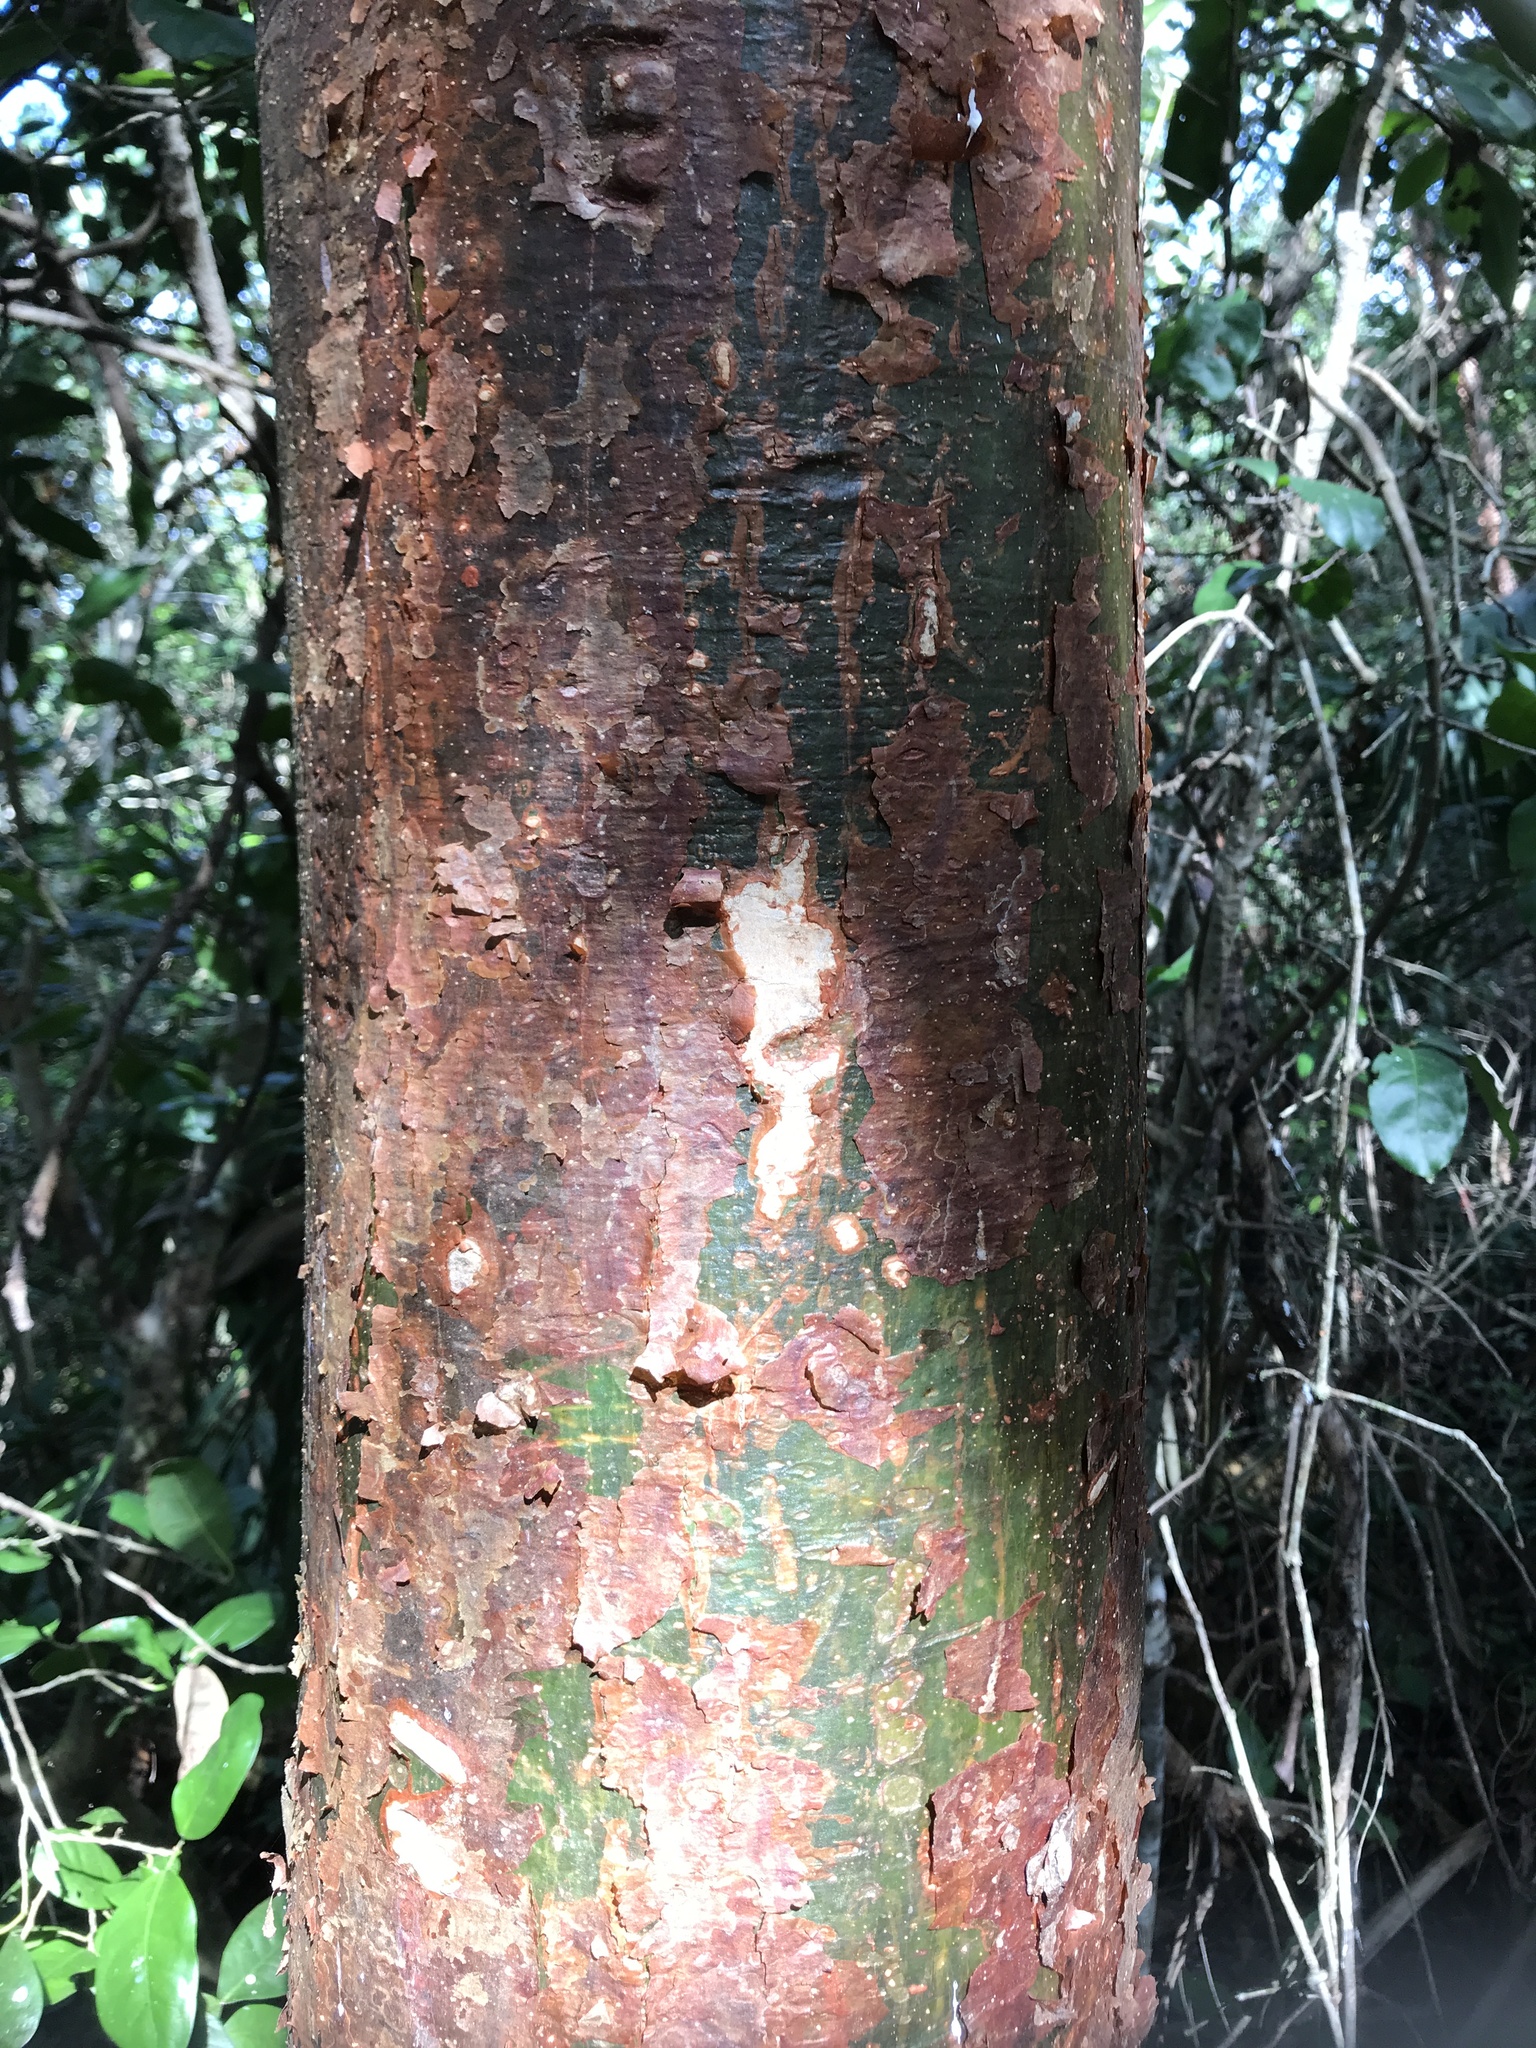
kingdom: Plantae
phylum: Tracheophyta
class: Magnoliopsida
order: Sapindales
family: Burseraceae
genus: Bursera
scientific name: Bursera simaruba
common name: Turpentine tree
